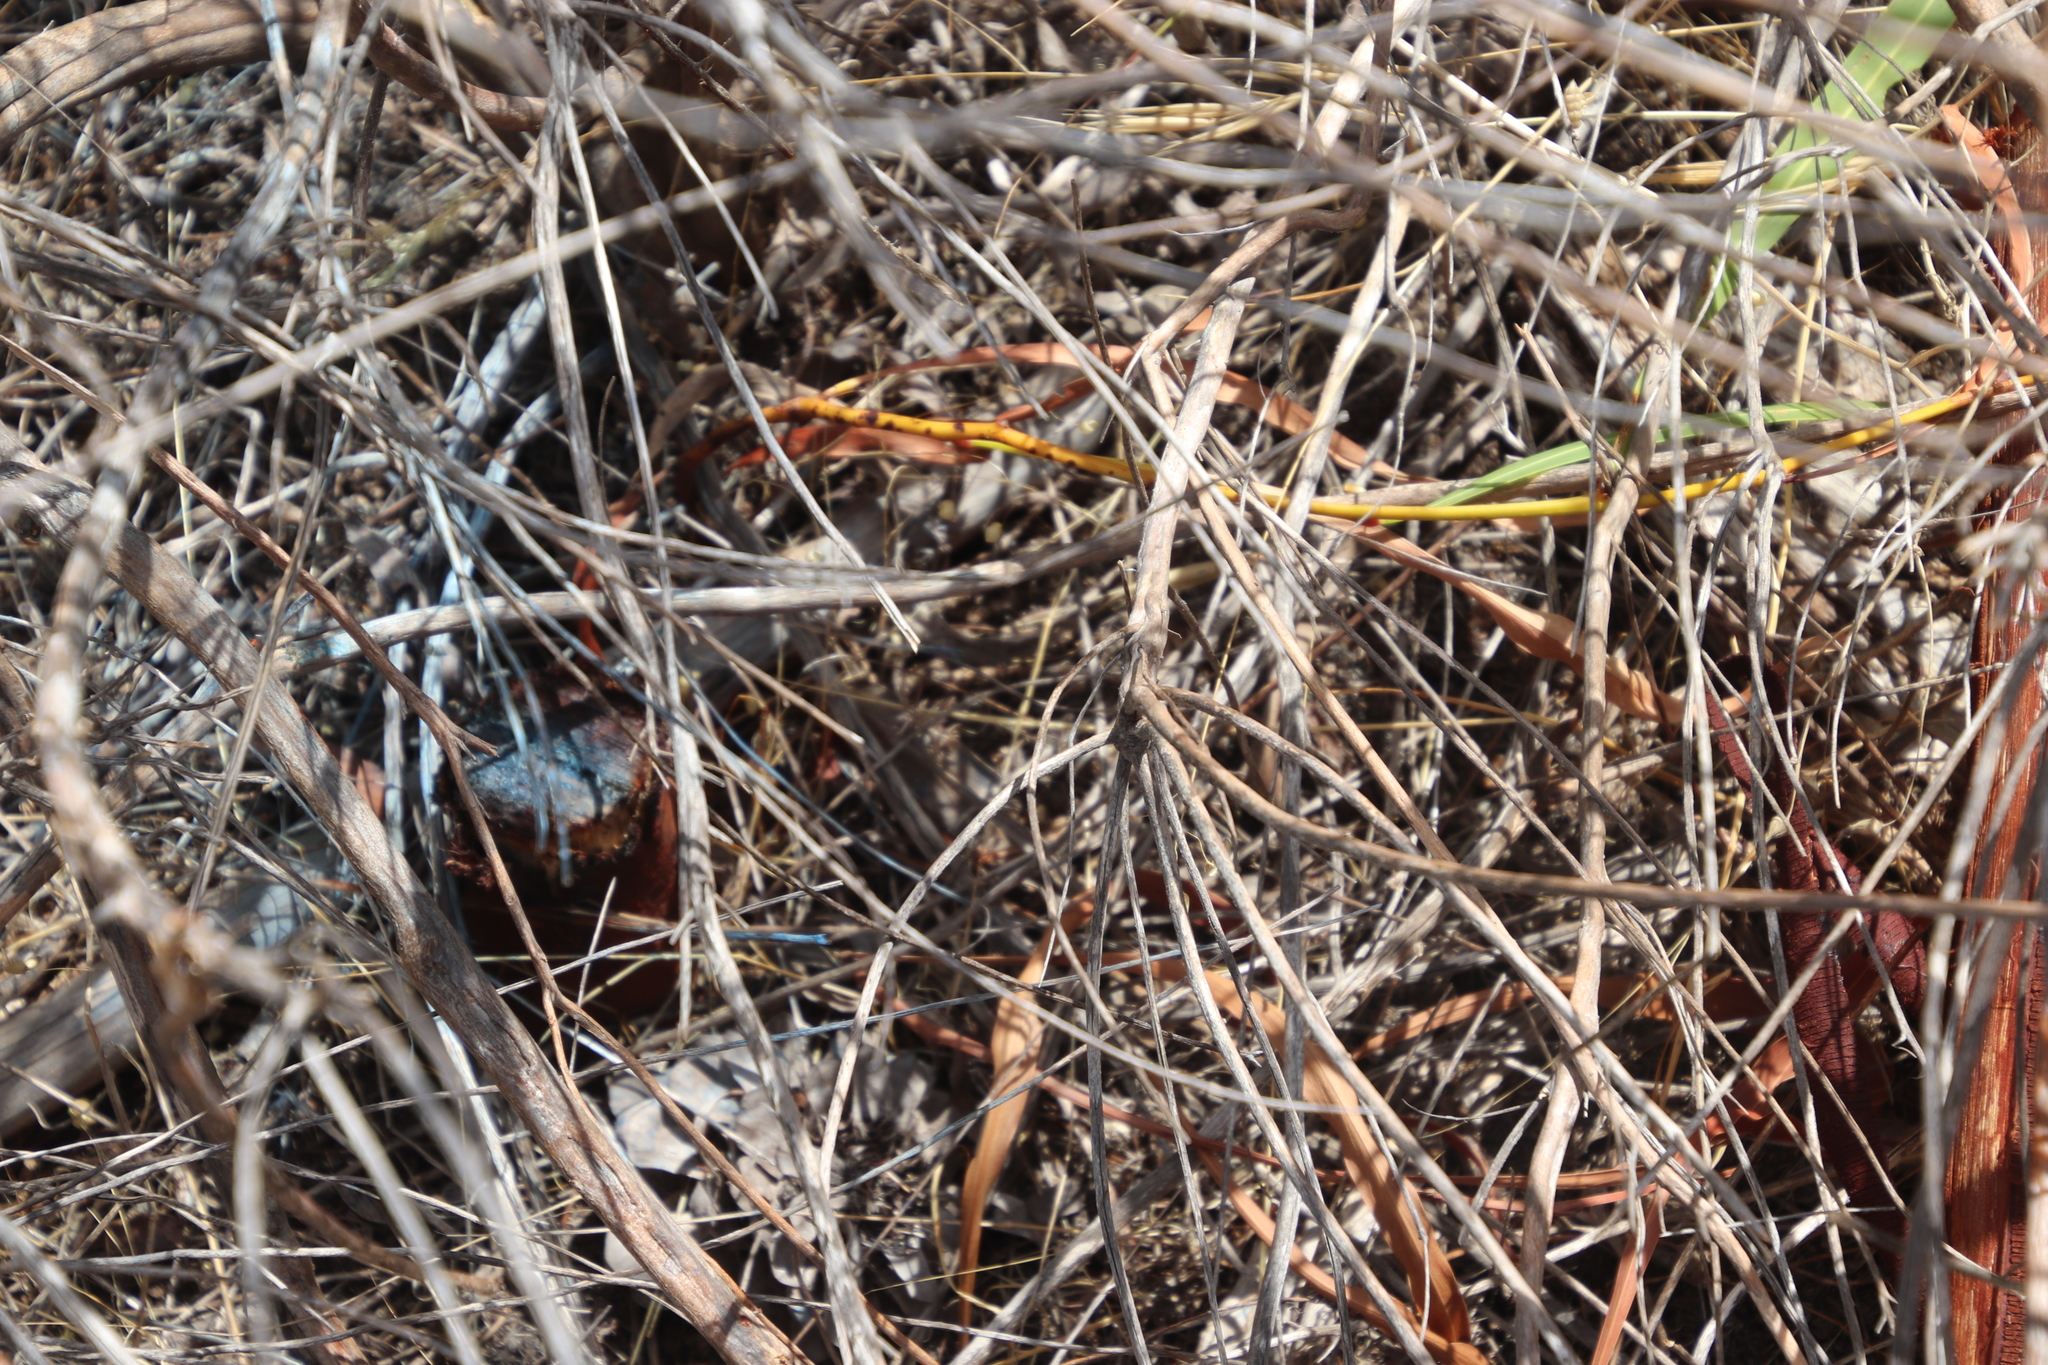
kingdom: Plantae
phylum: Tracheophyta
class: Magnoliopsida
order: Fabales
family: Fabaceae
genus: Acacia
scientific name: Acacia saligna
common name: Orange wattle
